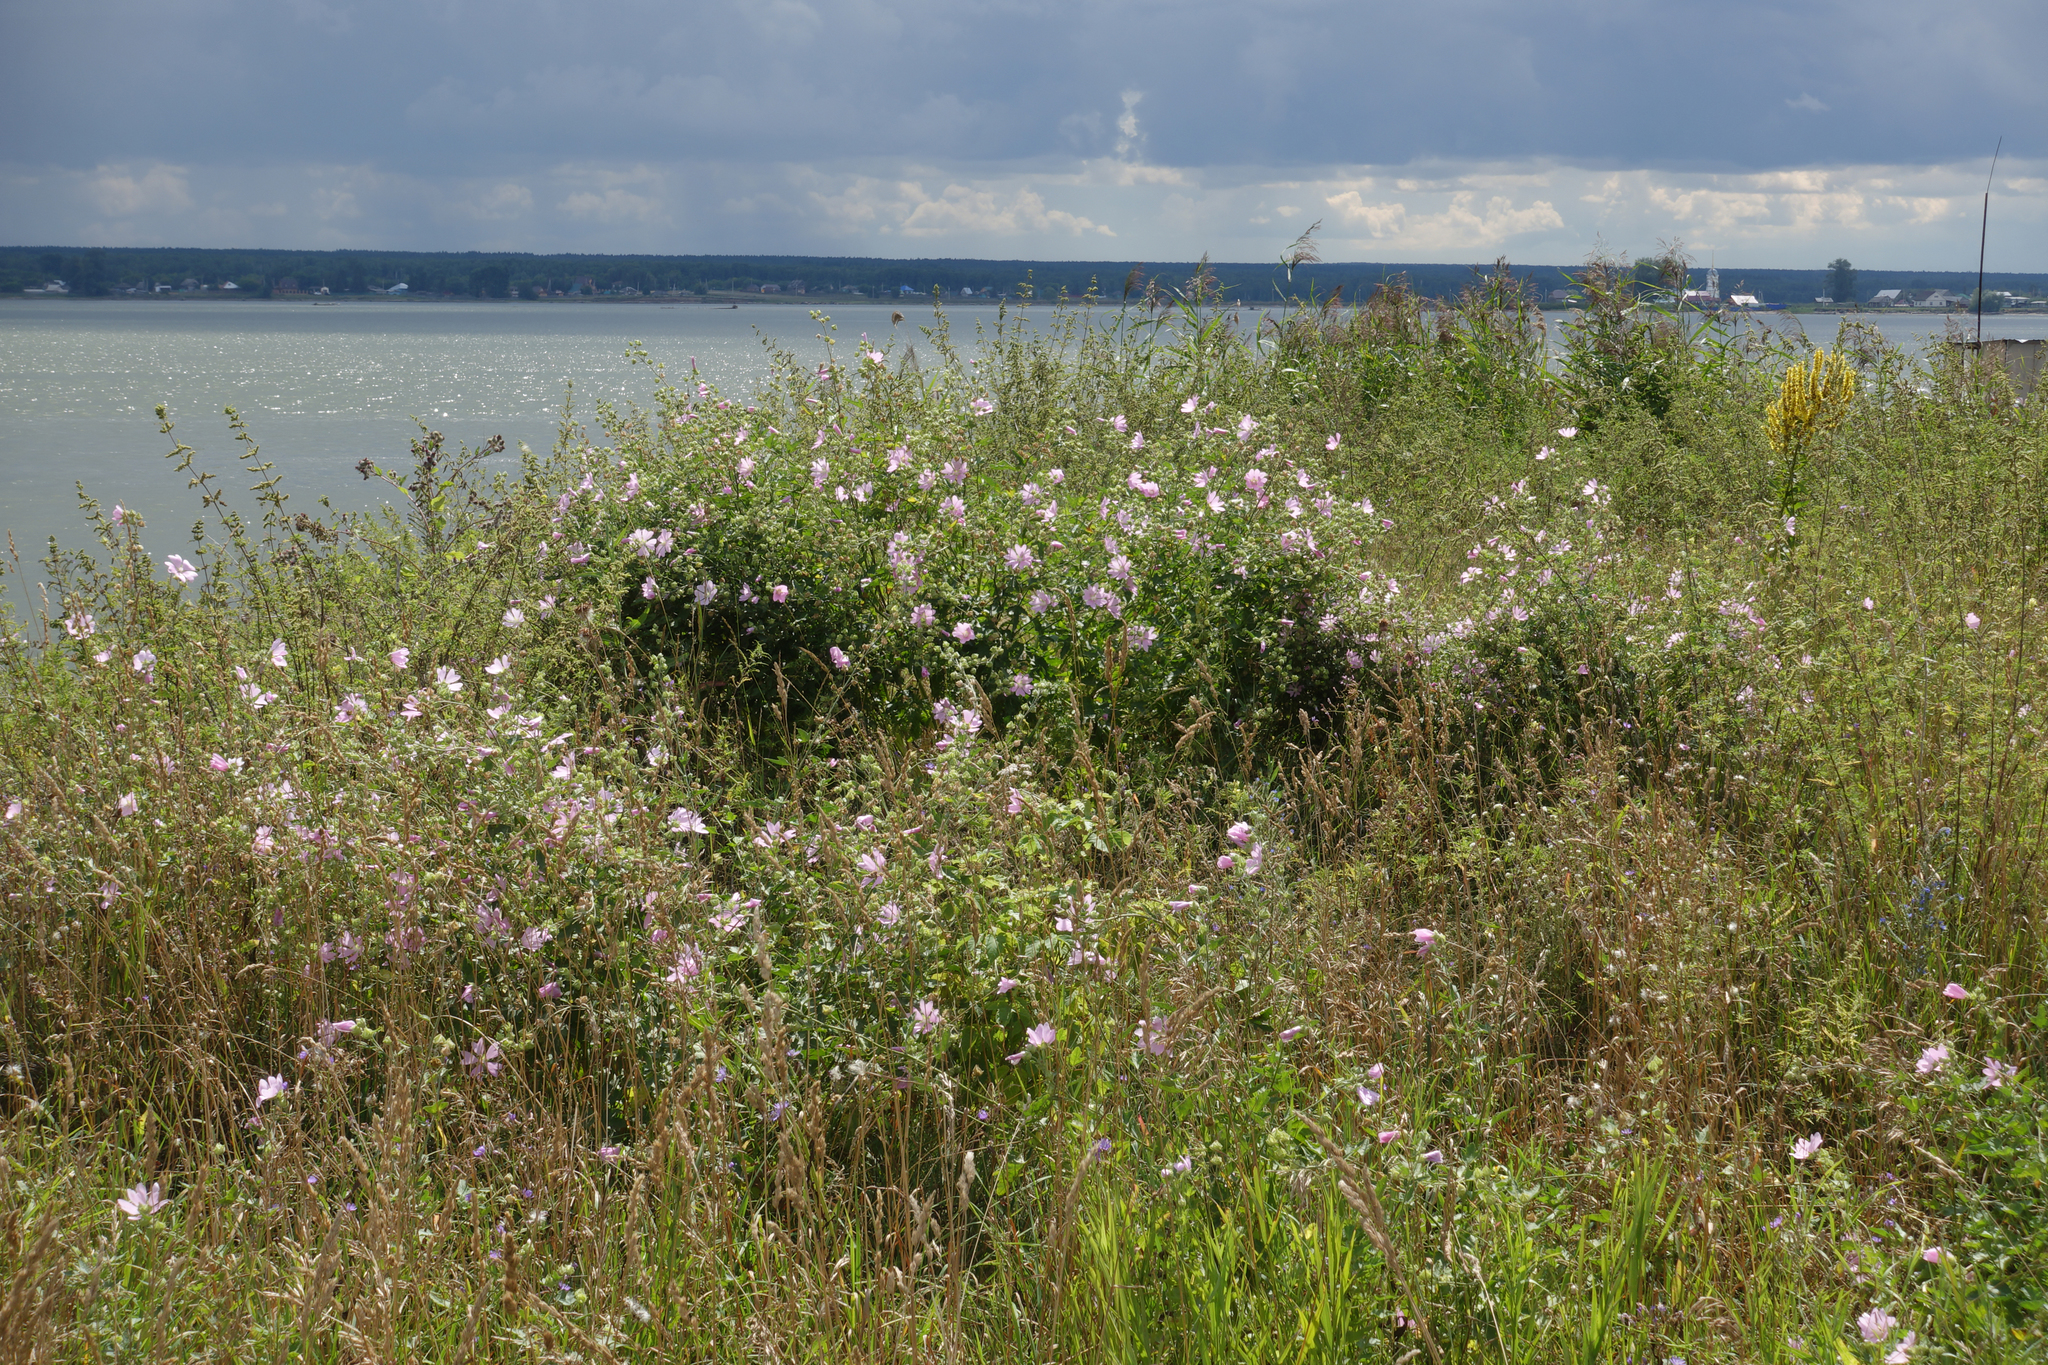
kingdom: Plantae
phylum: Tracheophyta
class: Magnoliopsida
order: Malvales
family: Malvaceae
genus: Malva
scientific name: Malva thuringiaca
